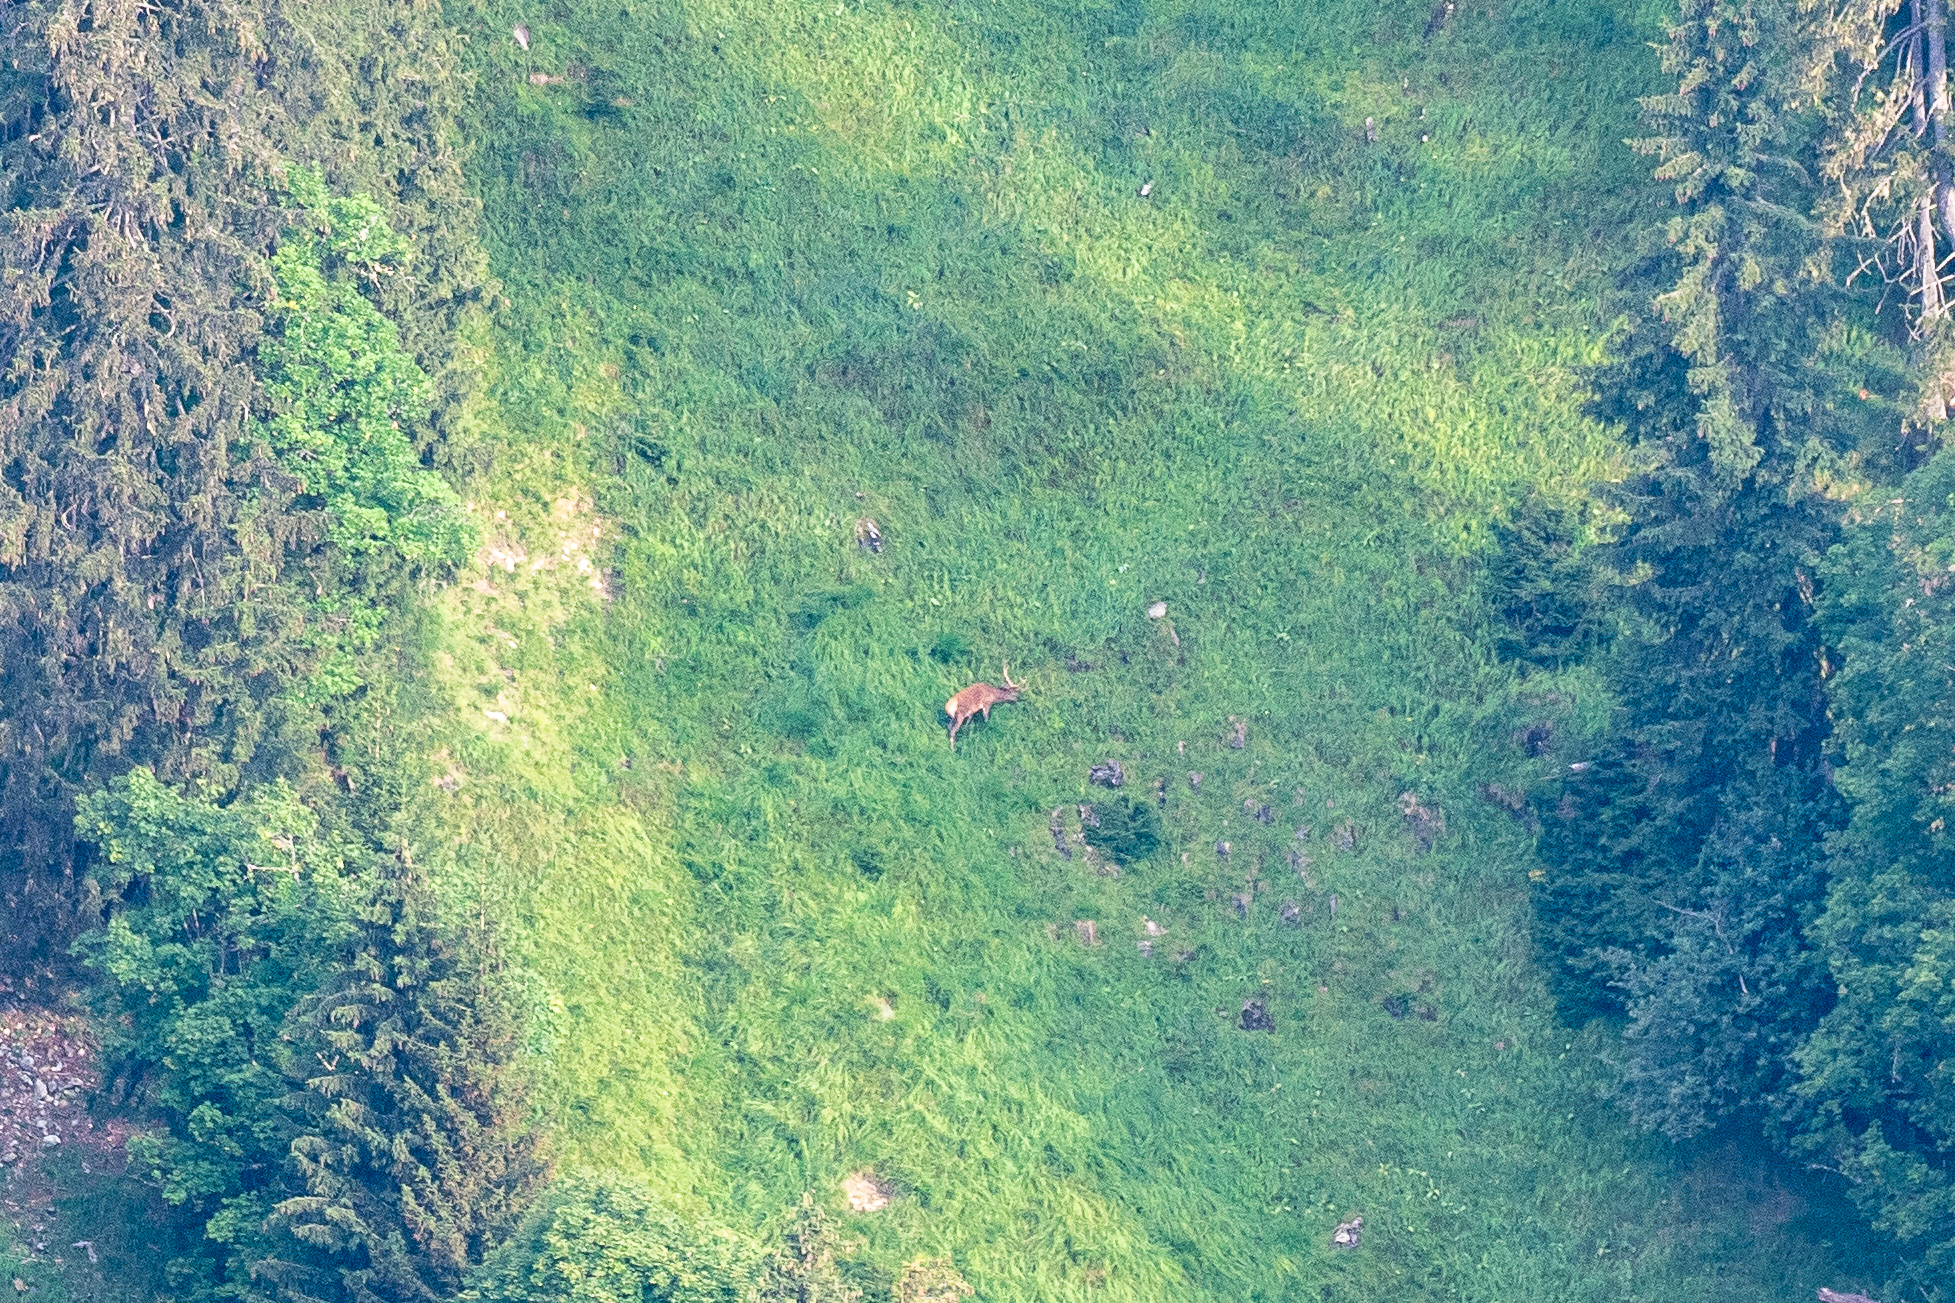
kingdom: Animalia
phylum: Chordata
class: Mammalia
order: Artiodactyla
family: Cervidae
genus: Cervus
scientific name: Cervus elaphus
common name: Red deer
